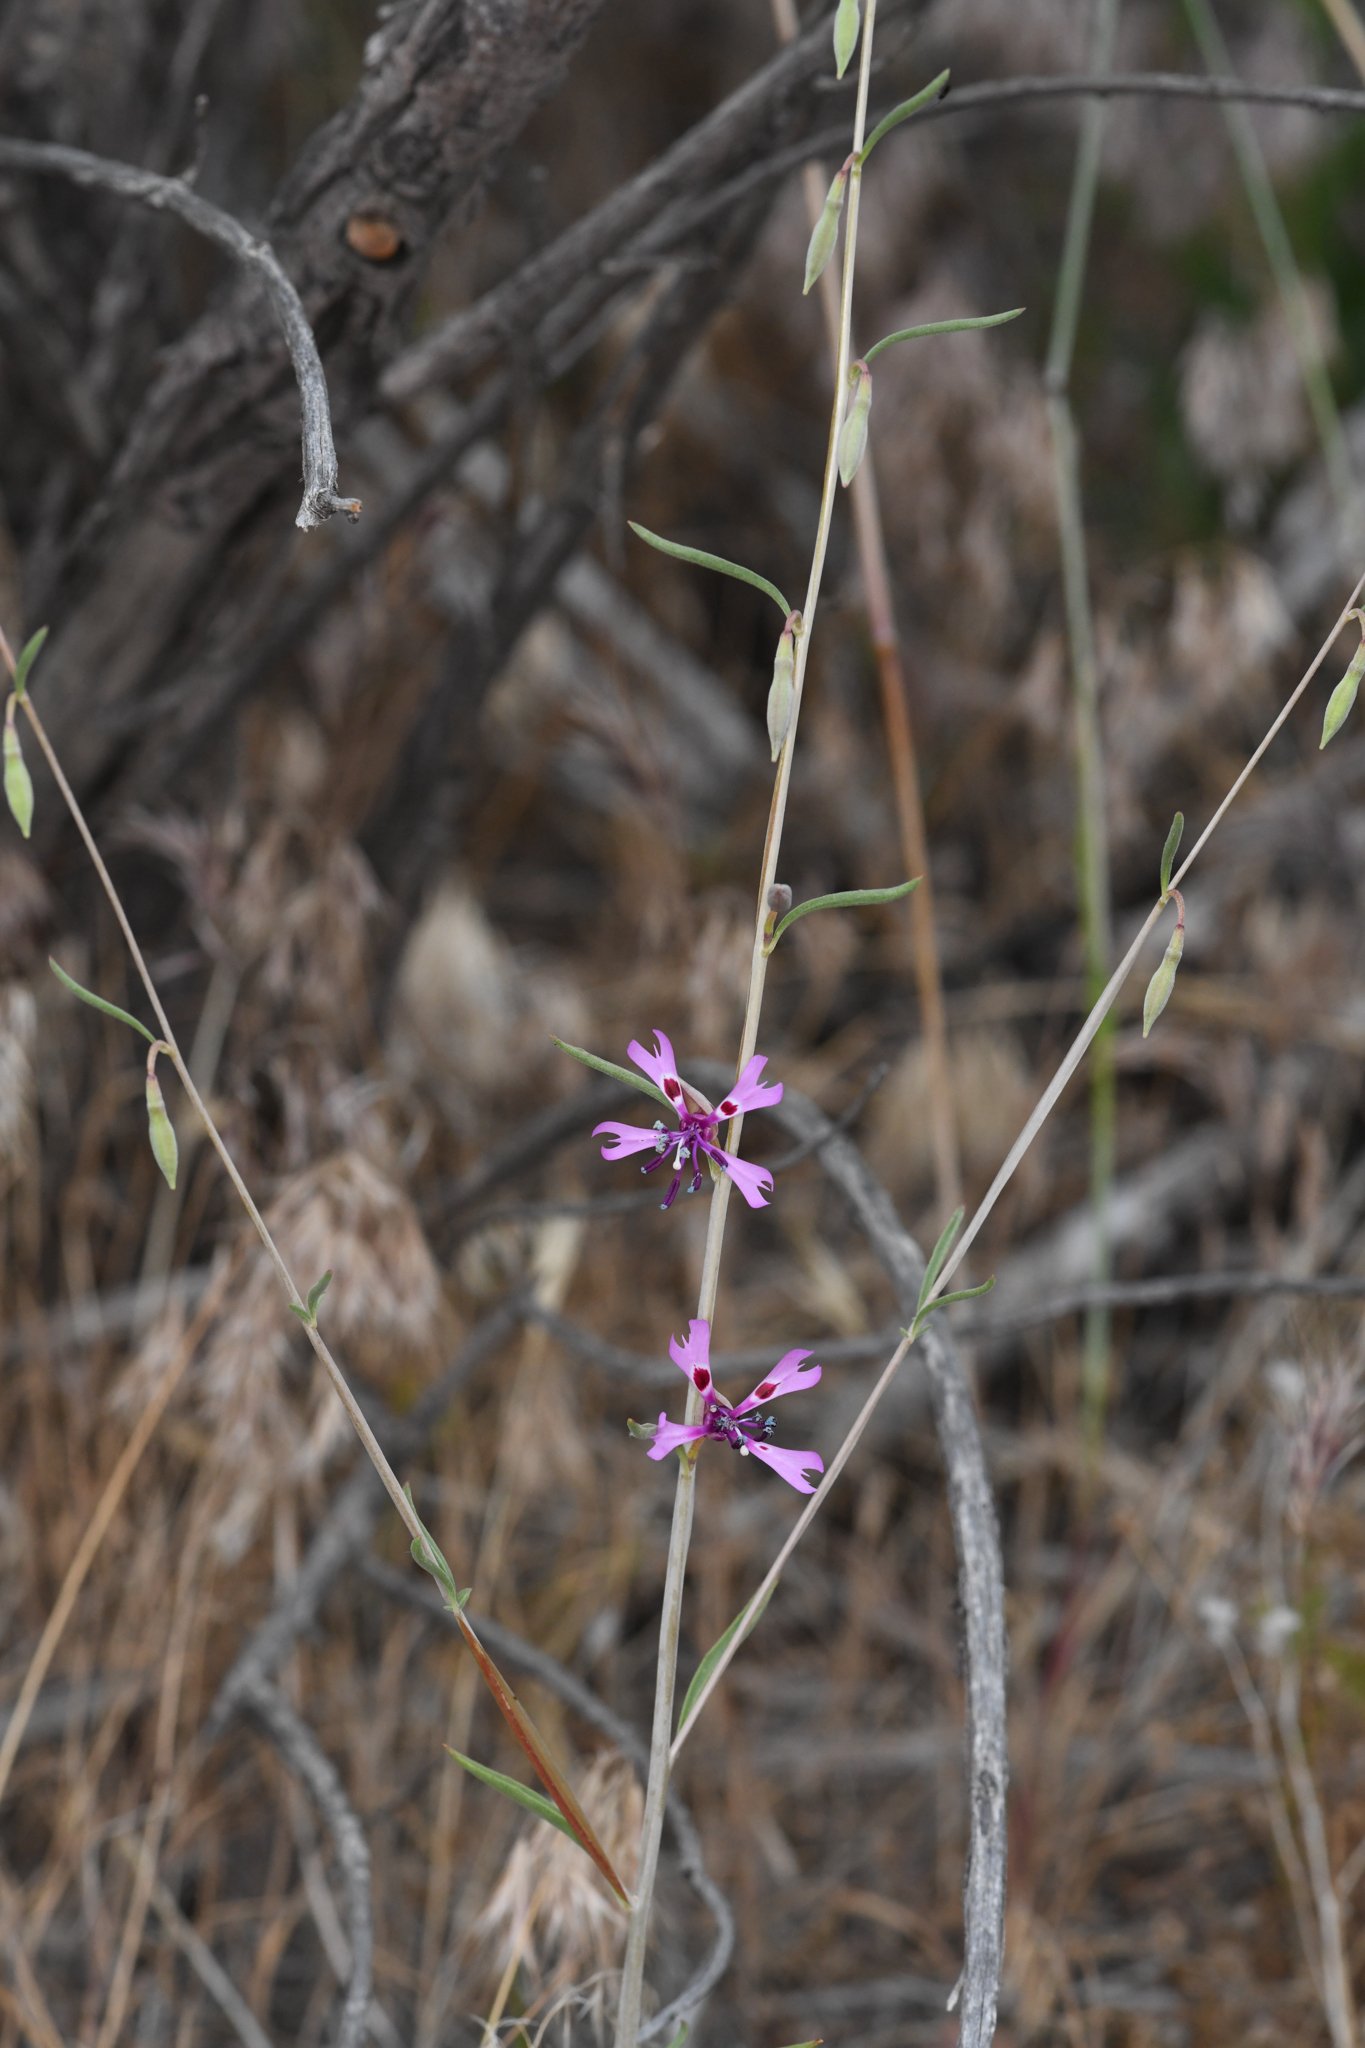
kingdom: Plantae
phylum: Tracheophyta
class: Magnoliopsida
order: Myrtales
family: Onagraceae
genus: Clarkia
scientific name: Clarkia xantiana
